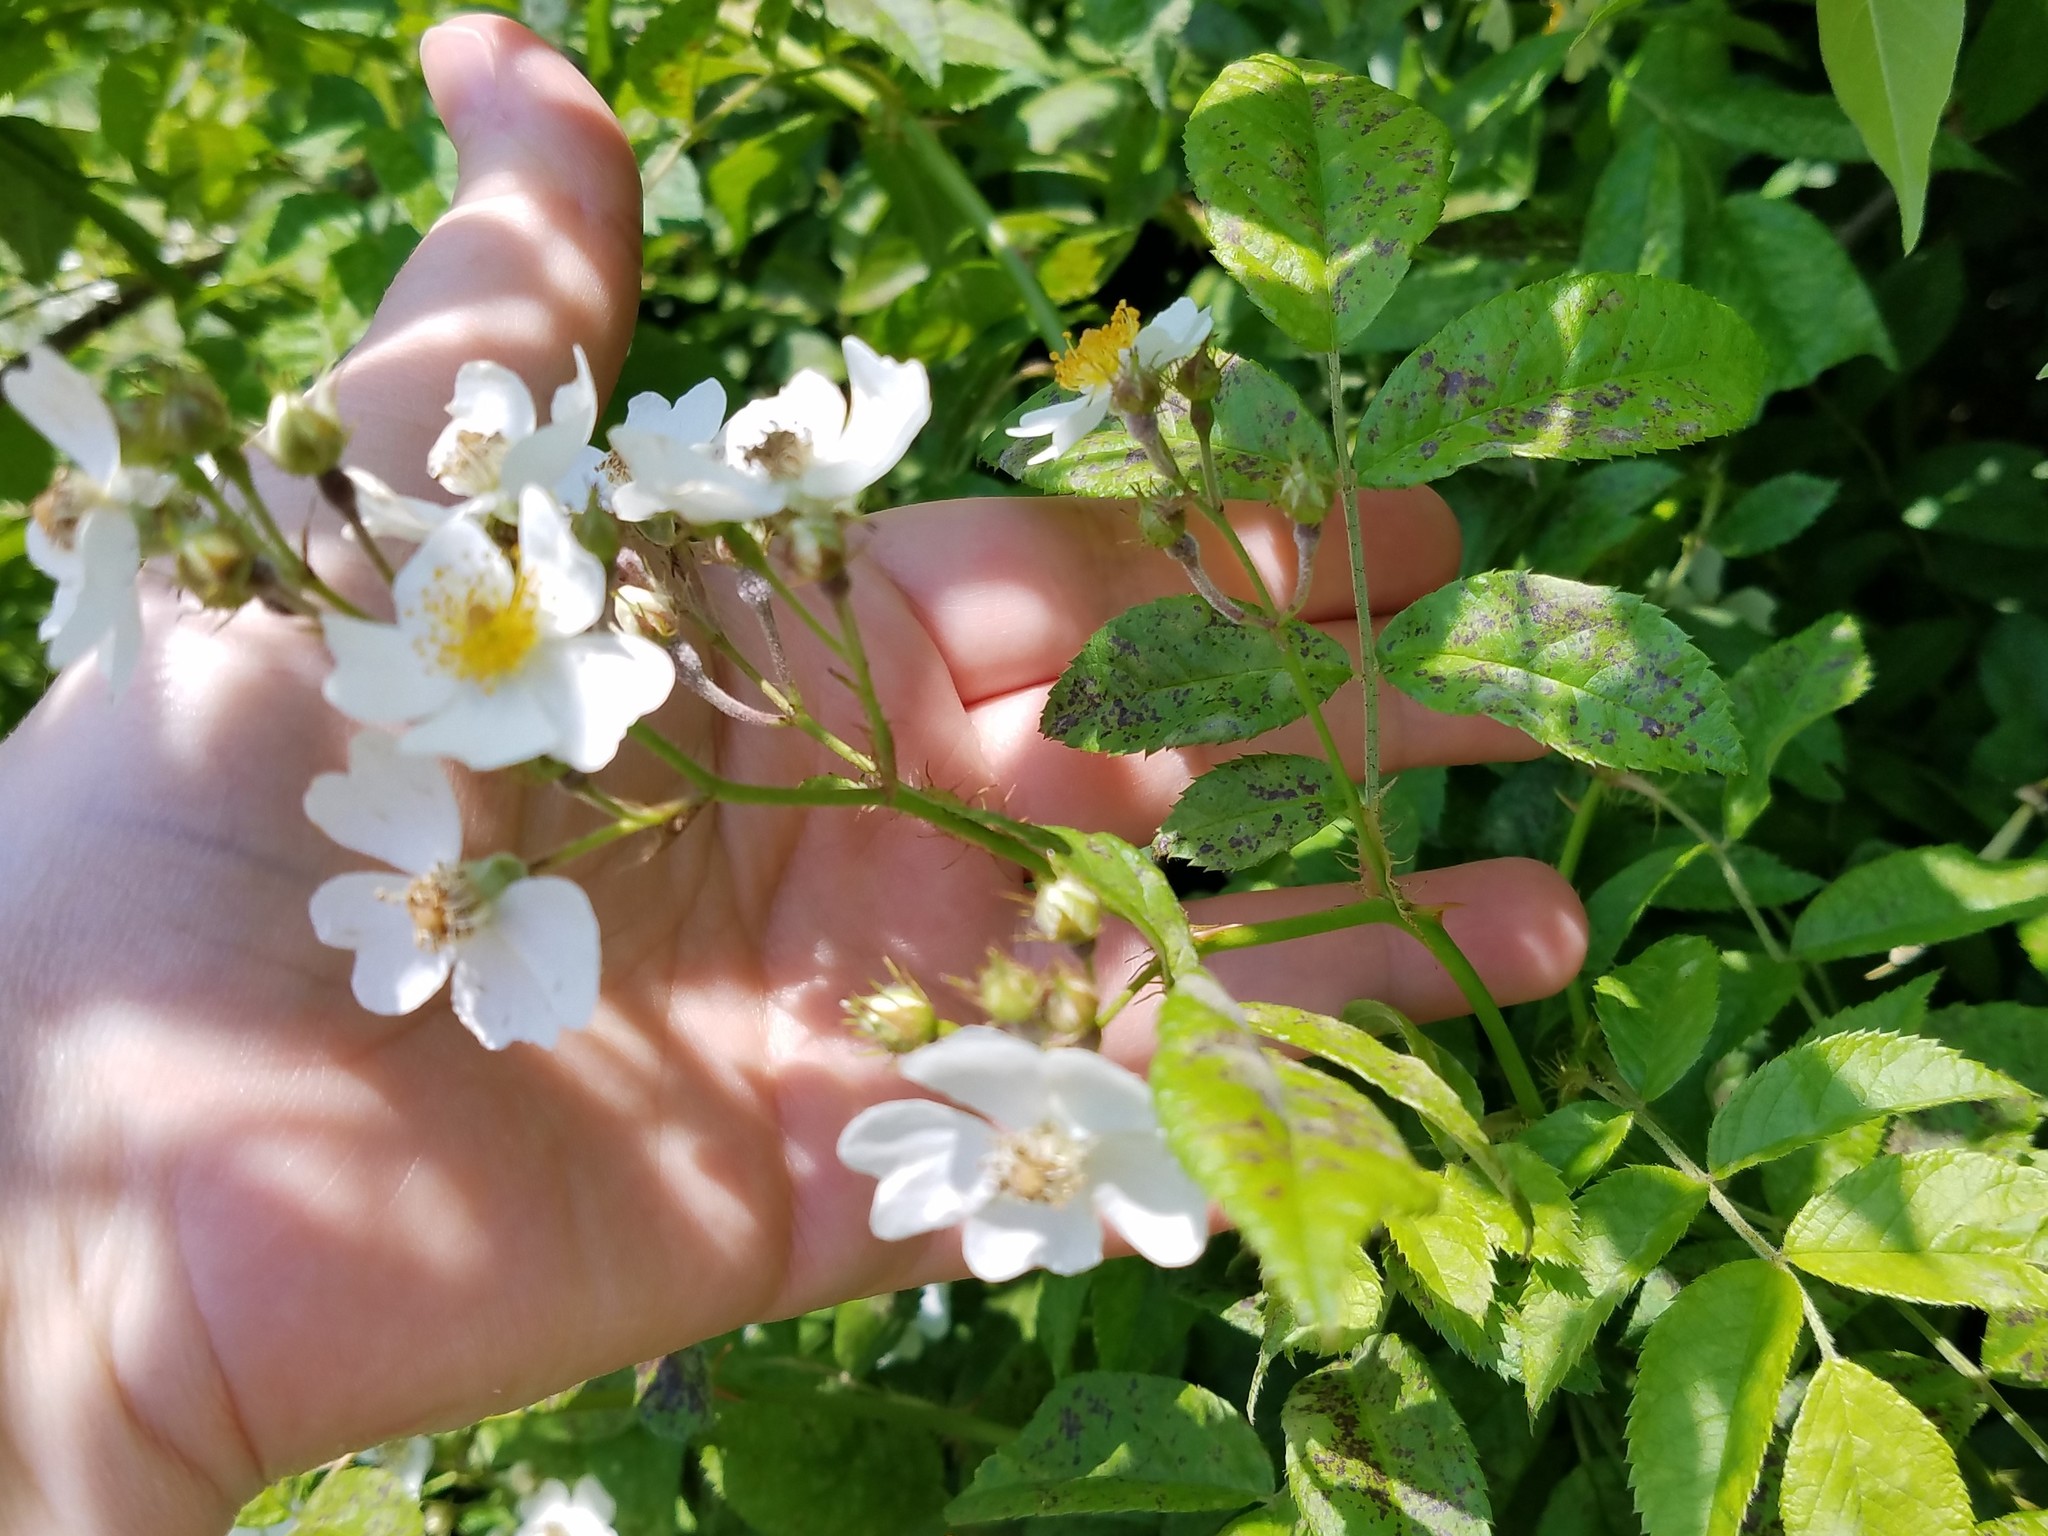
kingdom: Plantae
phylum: Tracheophyta
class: Magnoliopsida
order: Rosales
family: Rosaceae
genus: Rosa
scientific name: Rosa multiflora
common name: Multiflora rose
